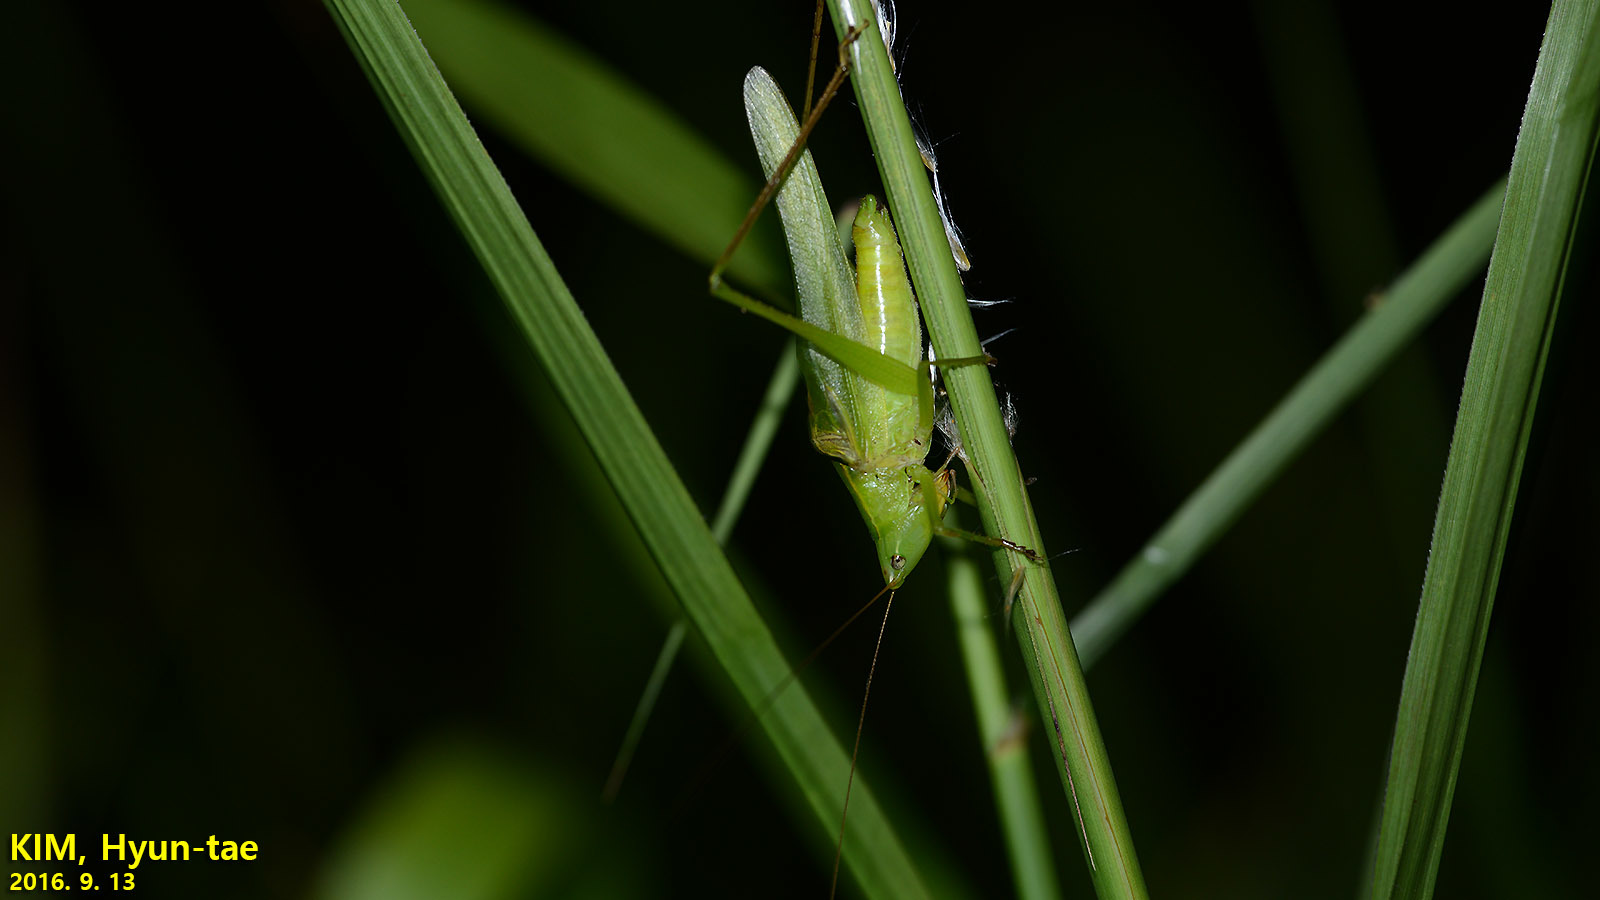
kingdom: Animalia
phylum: Arthropoda
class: Insecta
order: Orthoptera
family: Tettigoniidae
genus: Ruspolia
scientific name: Ruspolia interrupta
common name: Asian conehead
